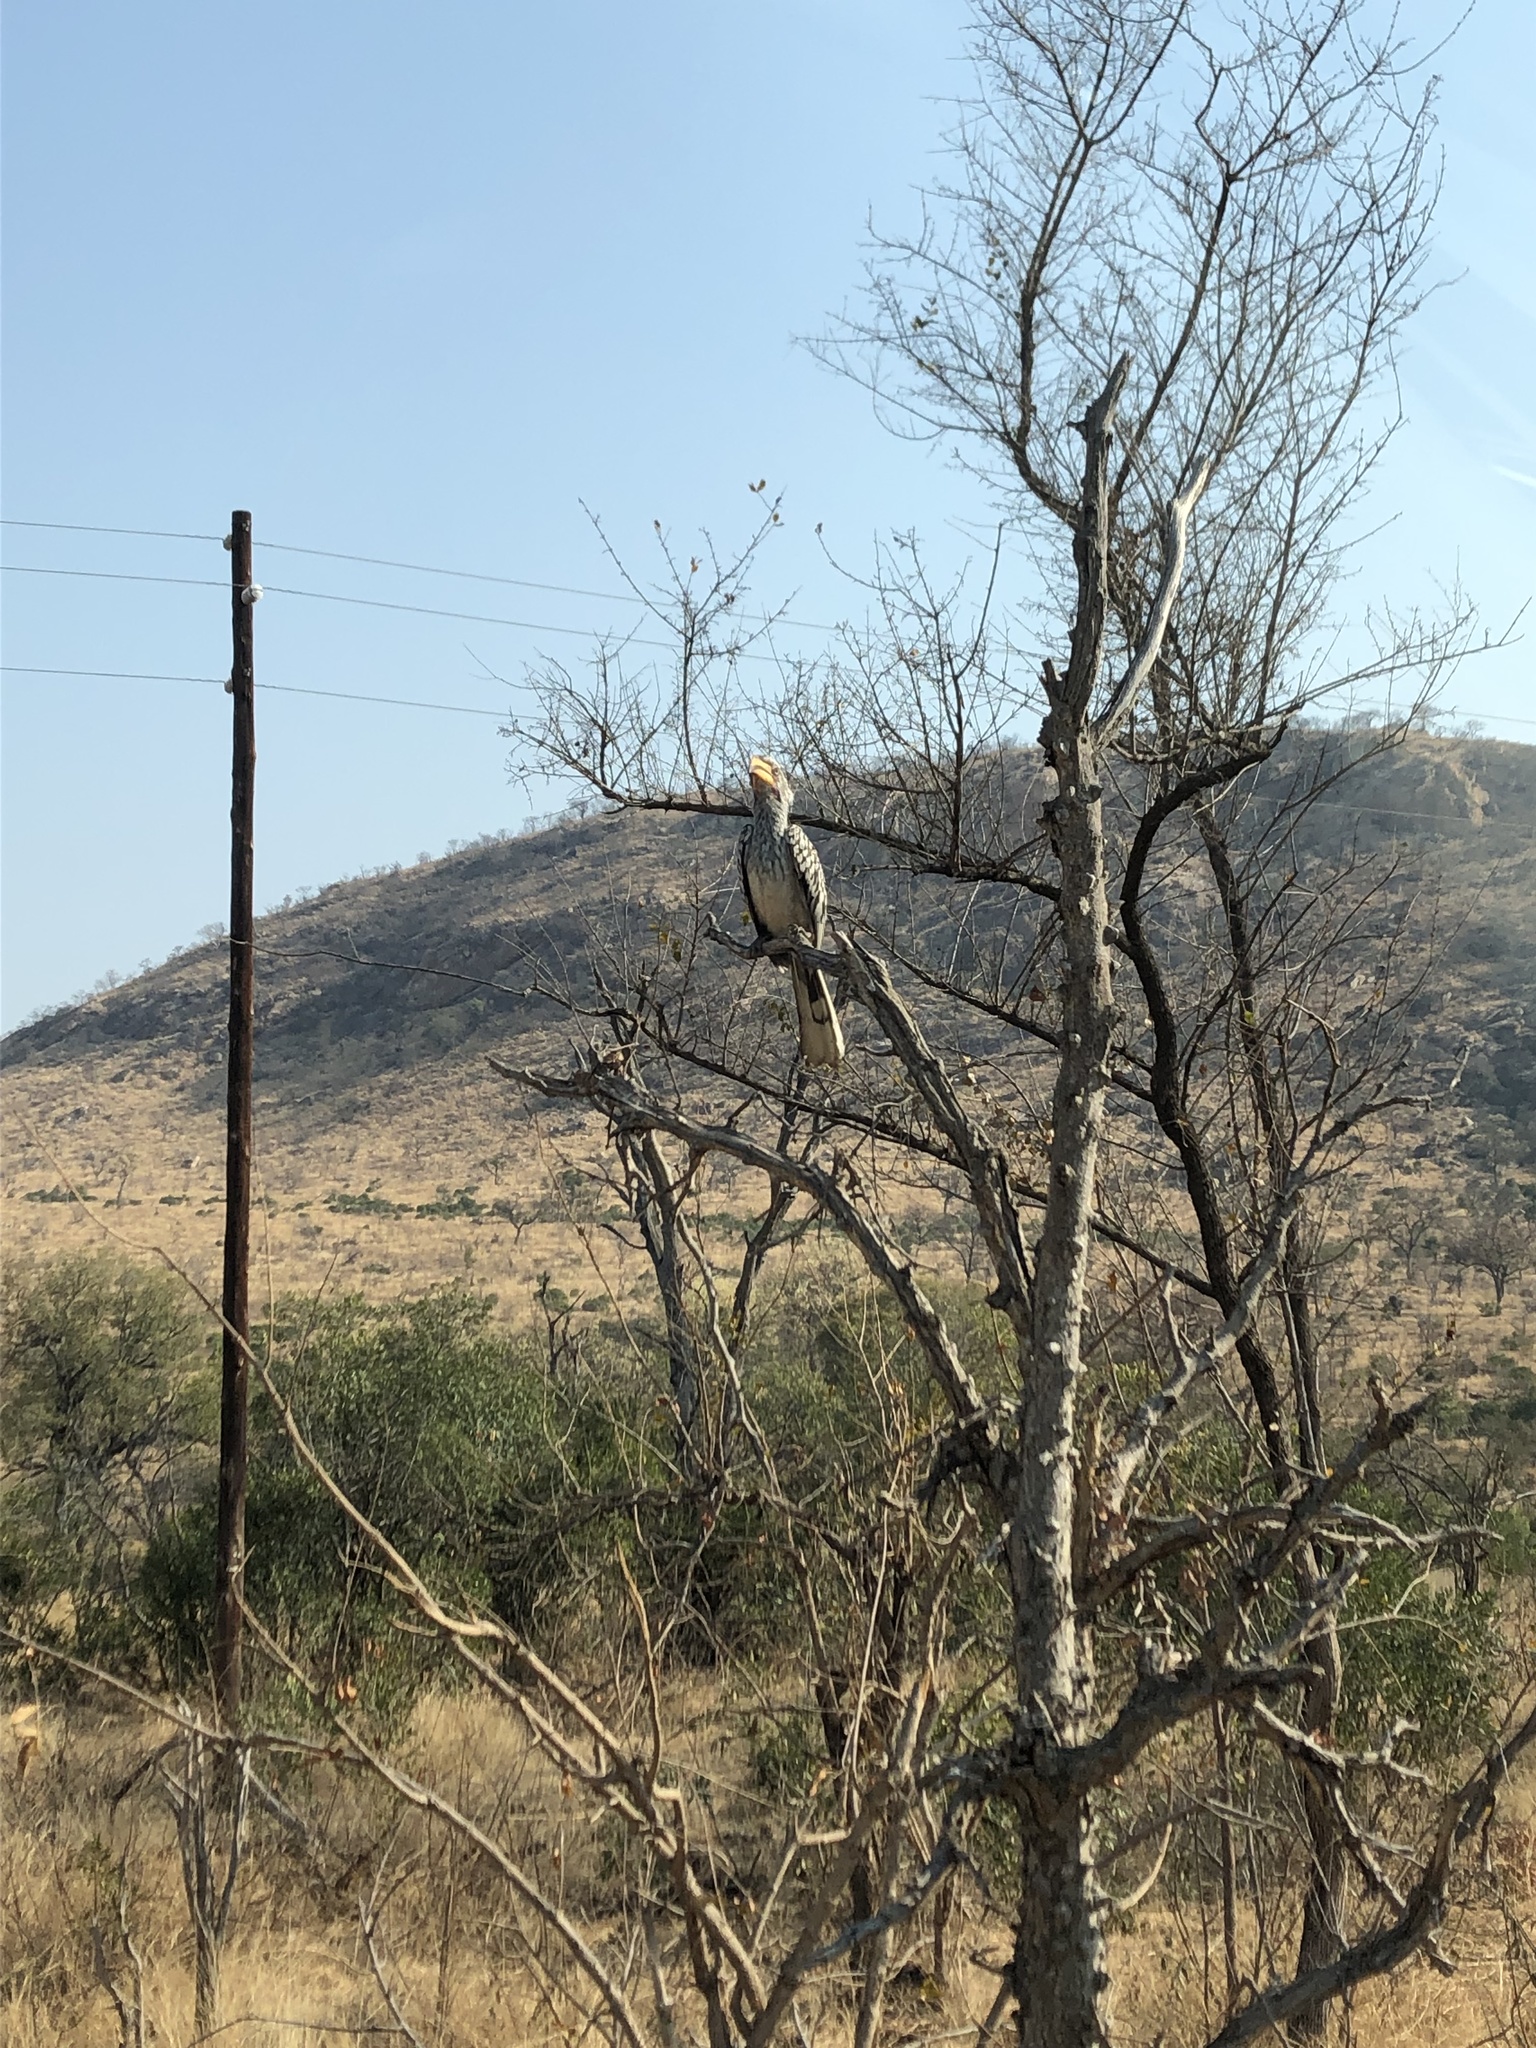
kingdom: Animalia
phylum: Chordata
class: Aves
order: Bucerotiformes
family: Bucerotidae
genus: Tockus
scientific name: Tockus leucomelas
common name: Southern yellow-billed hornbill
